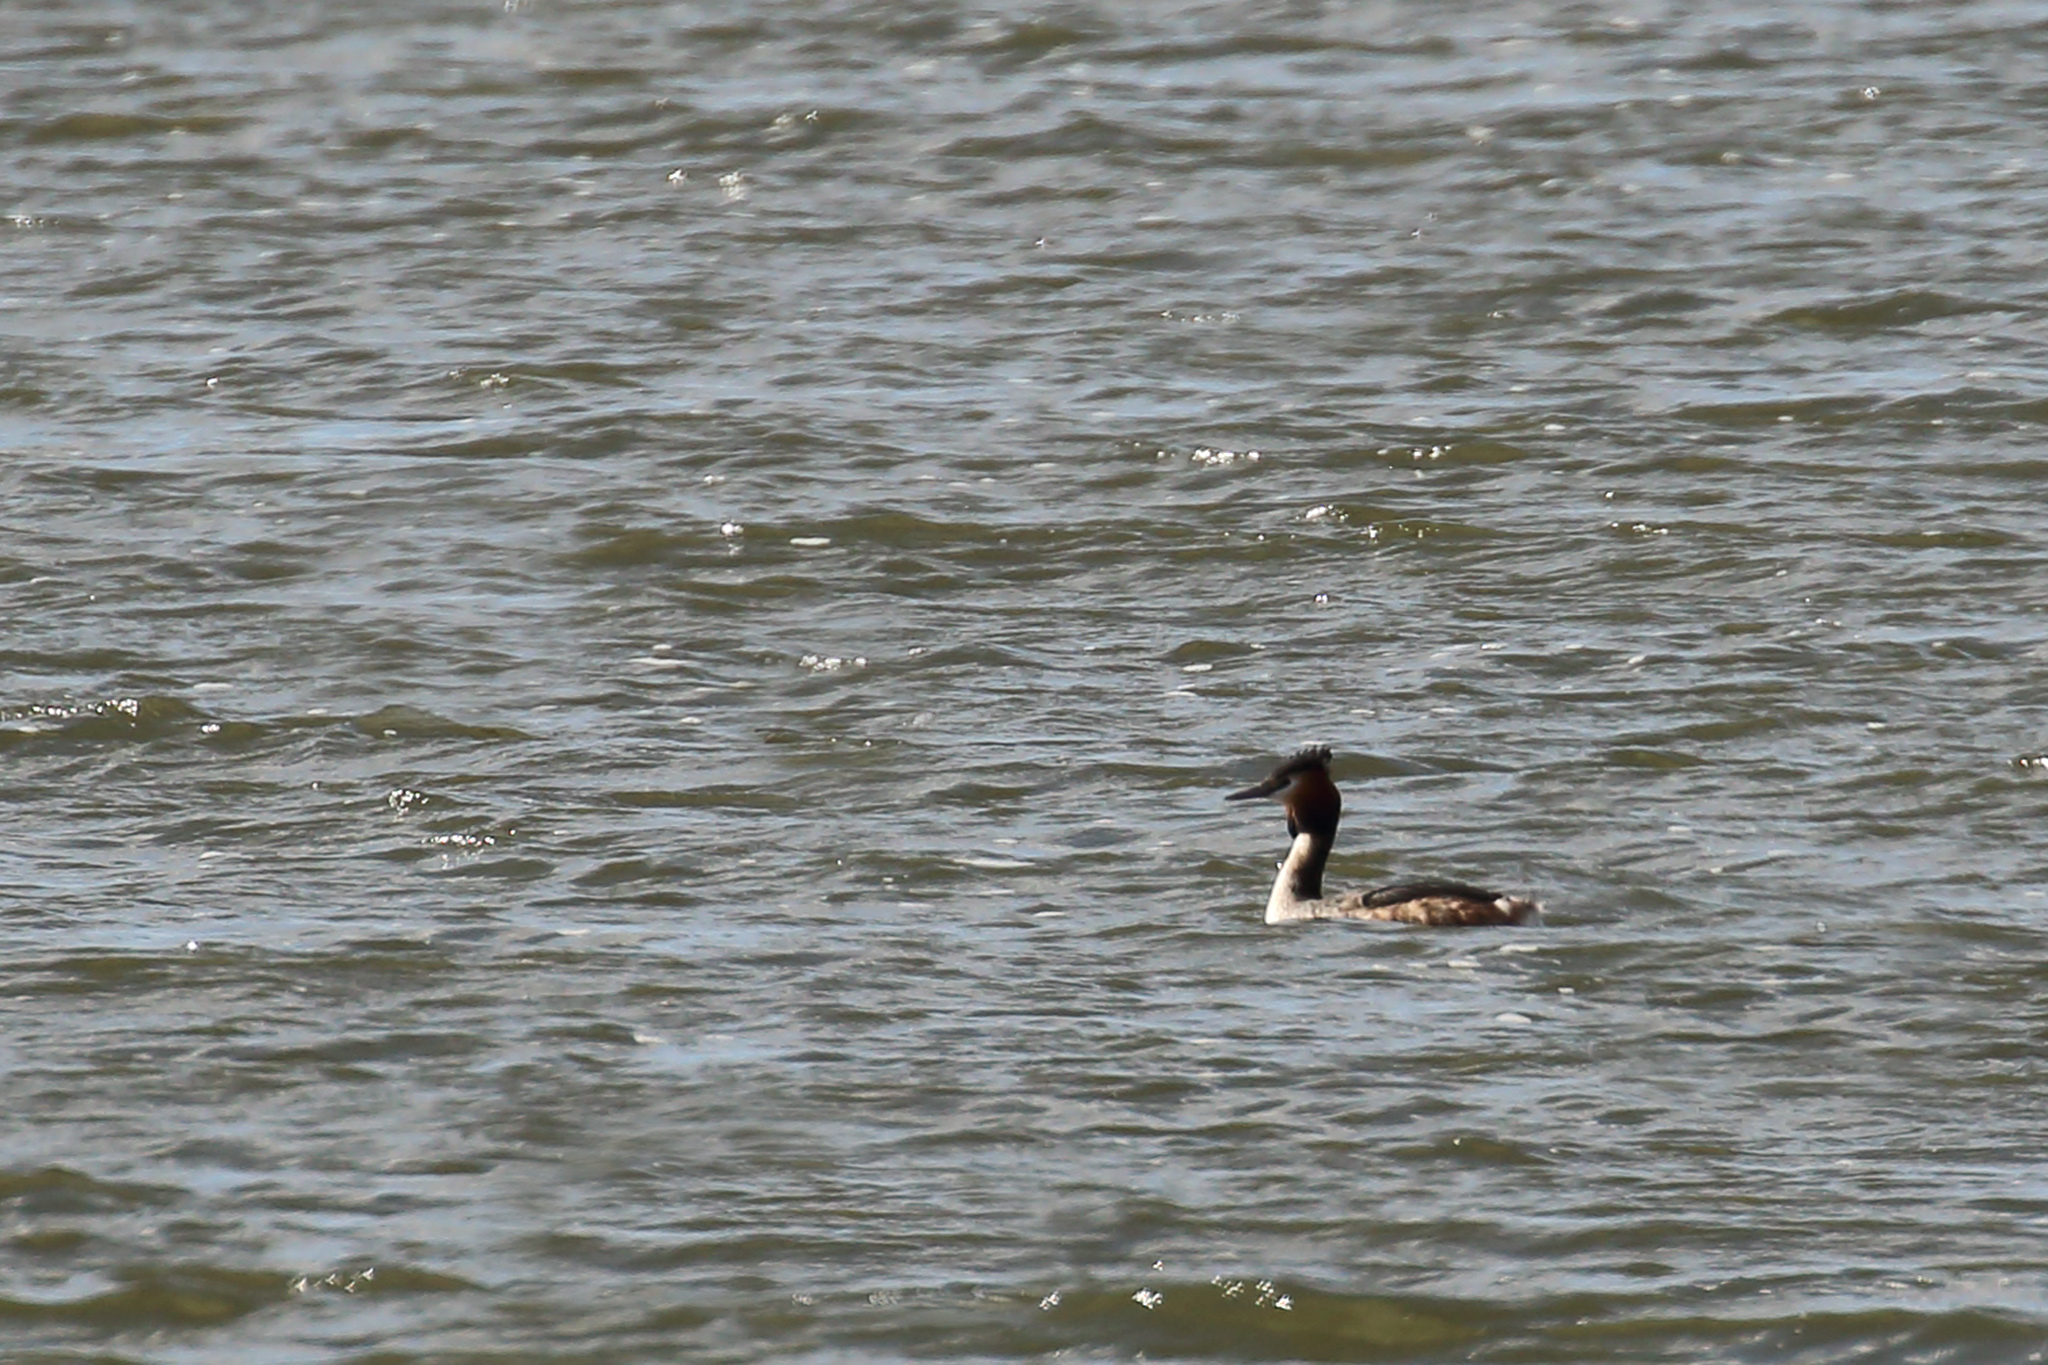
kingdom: Animalia
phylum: Chordata
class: Aves
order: Podicipediformes
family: Podicipedidae
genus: Podiceps
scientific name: Podiceps cristatus
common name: Great crested grebe
